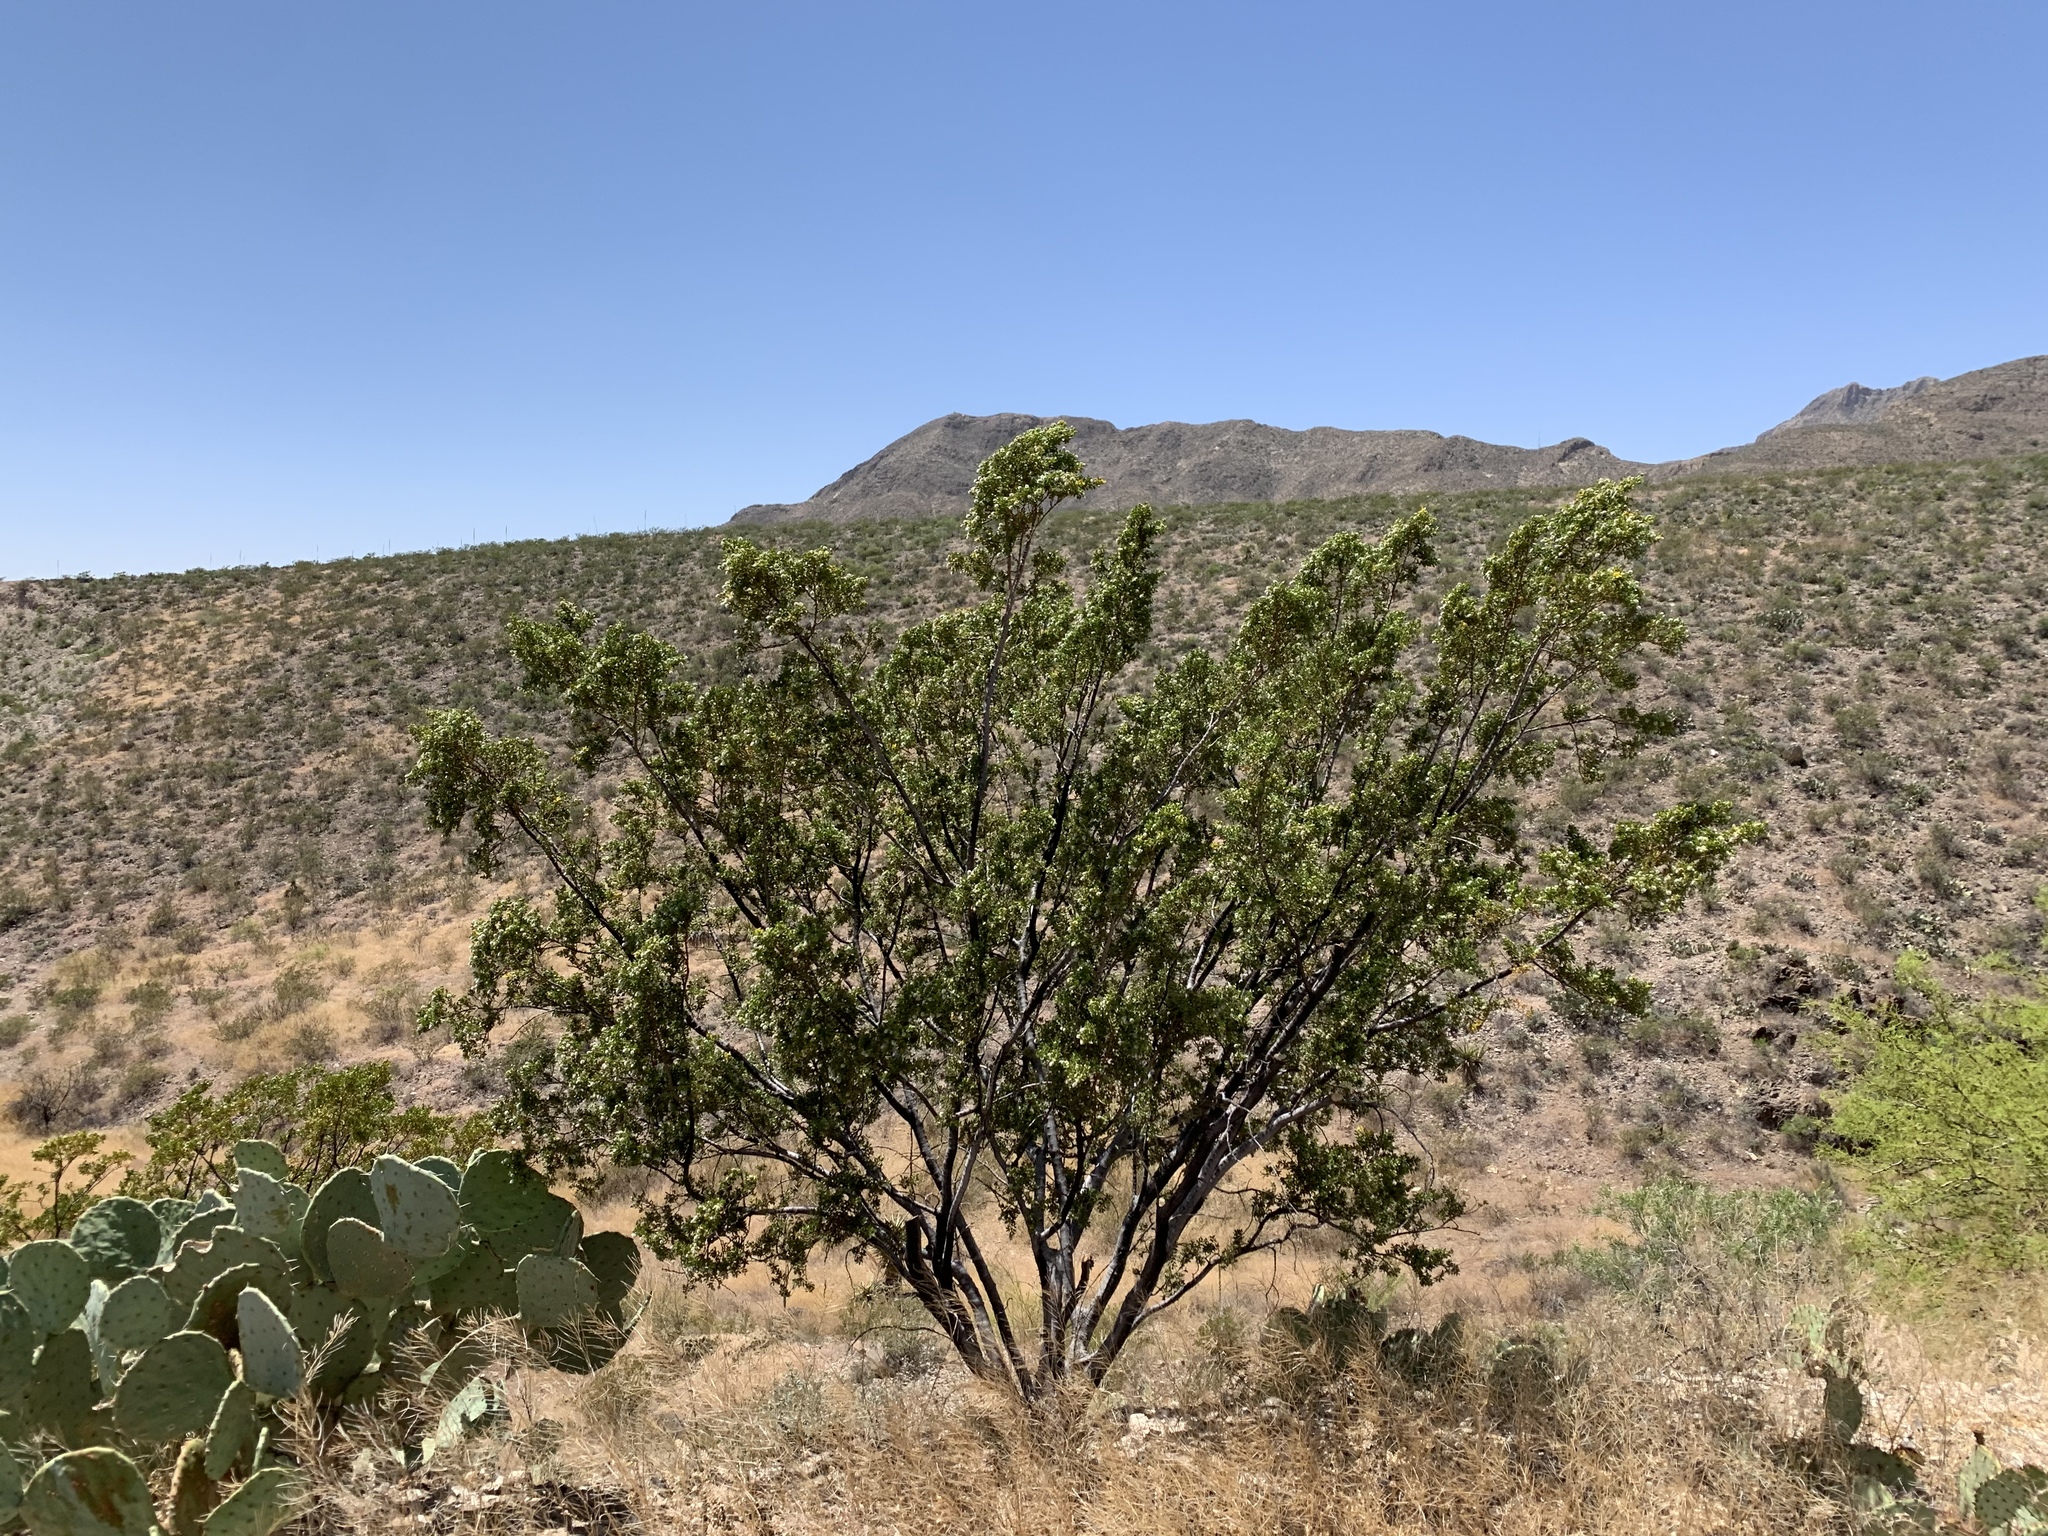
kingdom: Plantae
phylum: Tracheophyta
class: Magnoliopsida
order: Zygophyllales
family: Zygophyllaceae
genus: Larrea
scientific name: Larrea tridentata
